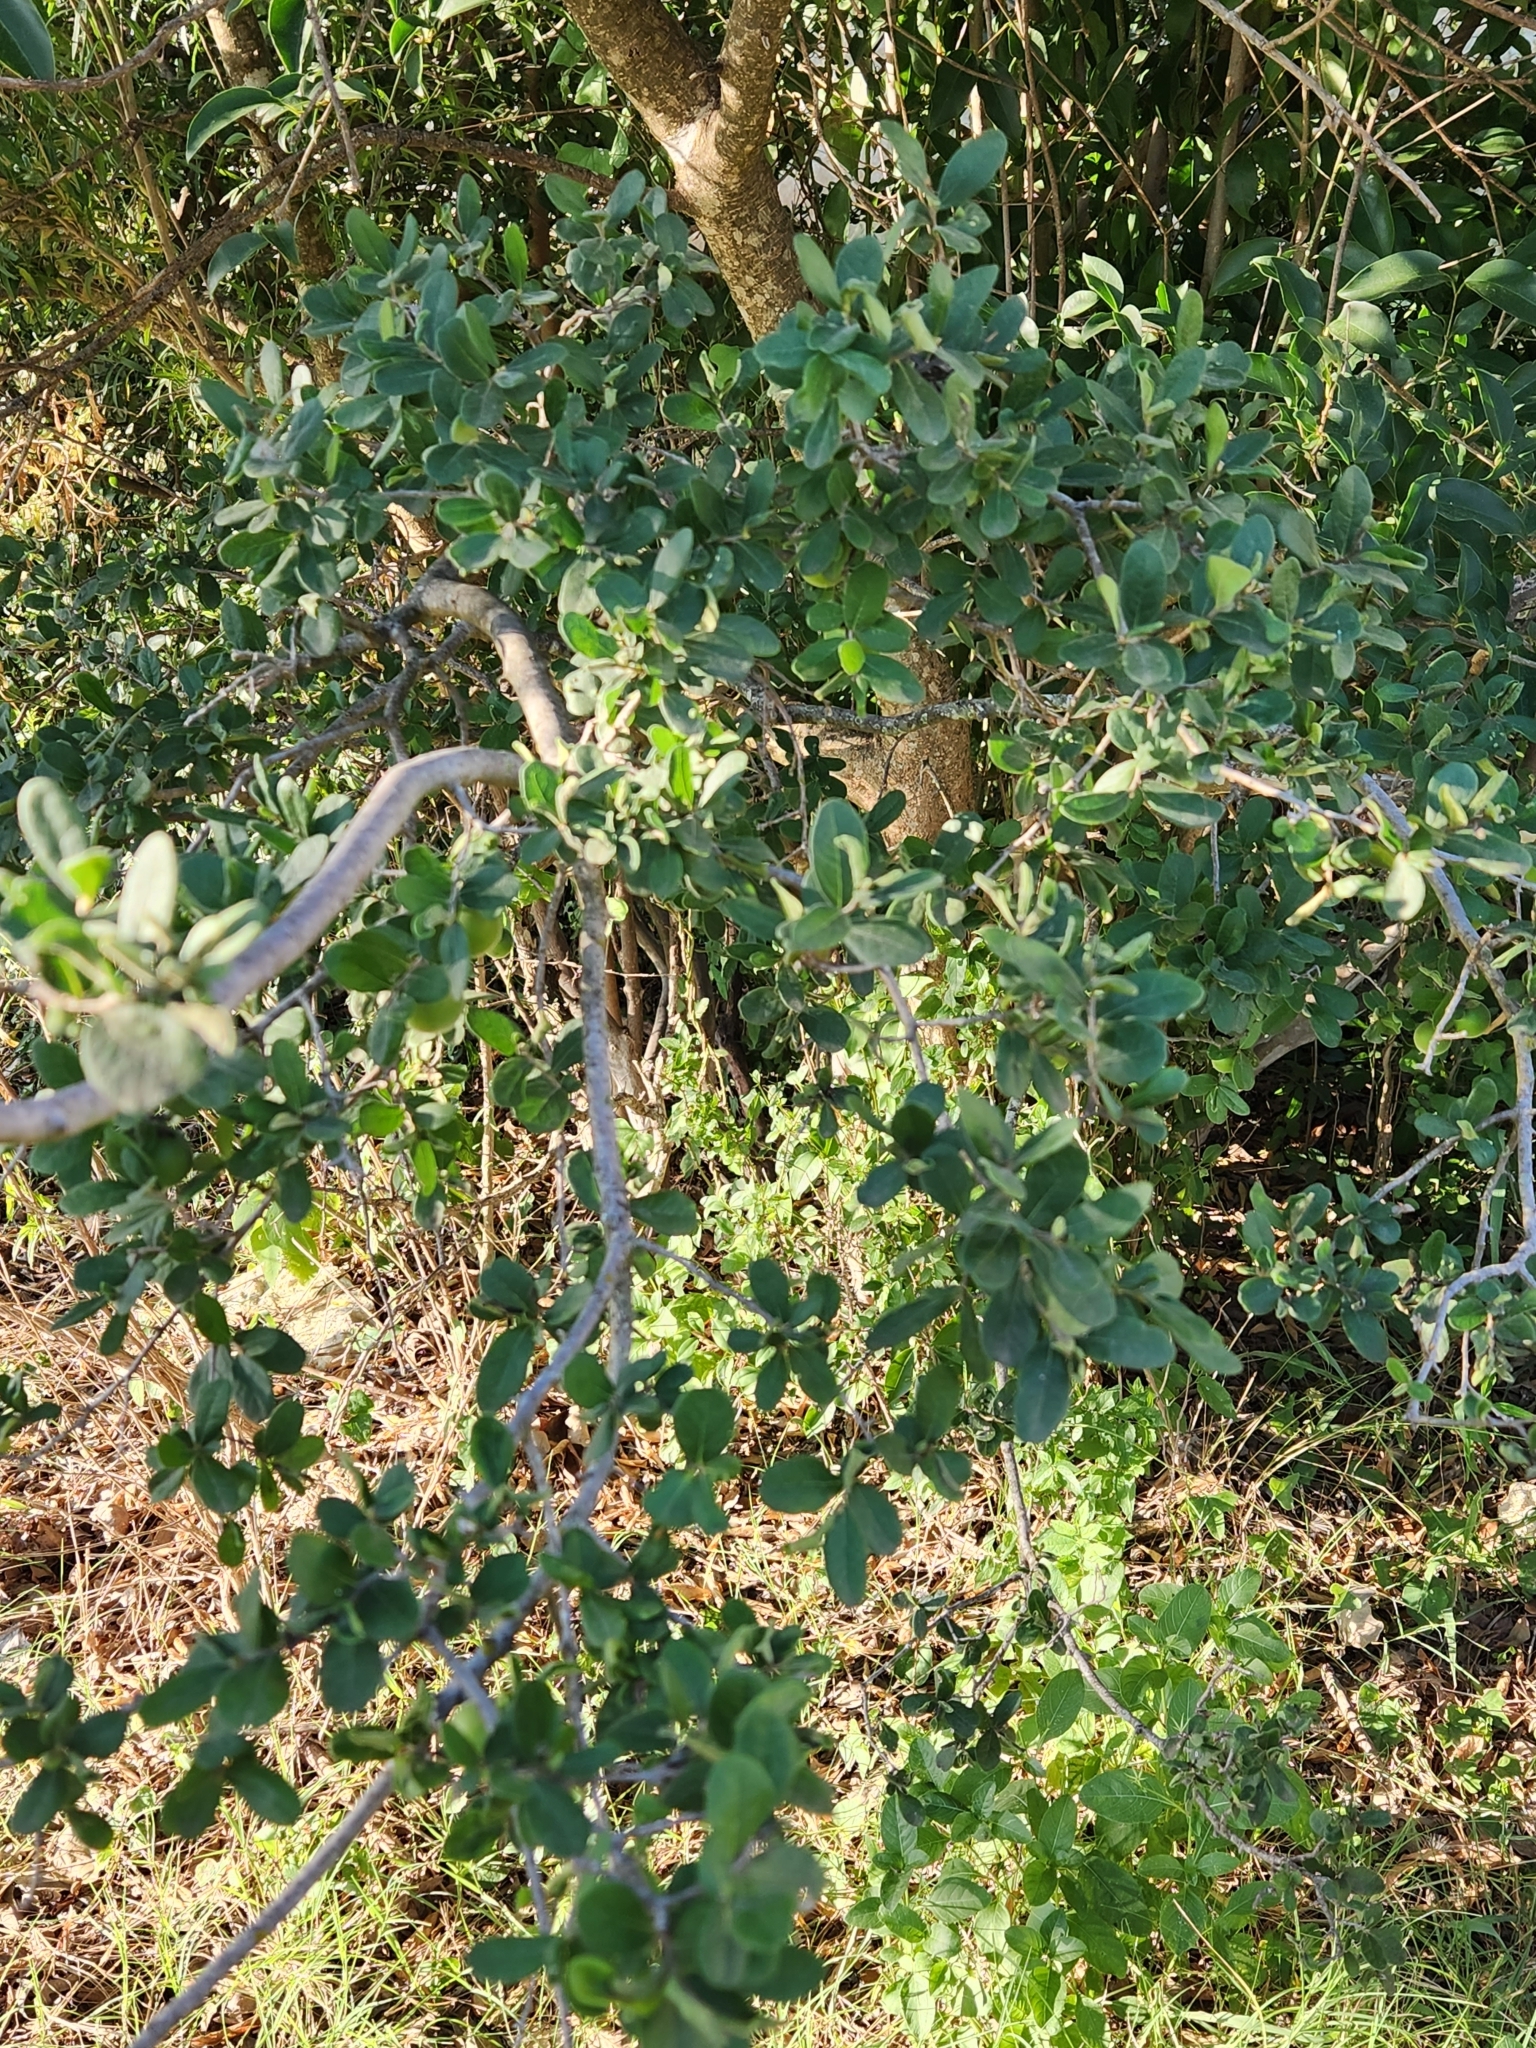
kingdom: Plantae
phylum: Tracheophyta
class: Magnoliopsida
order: Ericales
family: Ebenaceae
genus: Diospyros
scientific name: Diospyros texana
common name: Texas persimmon
